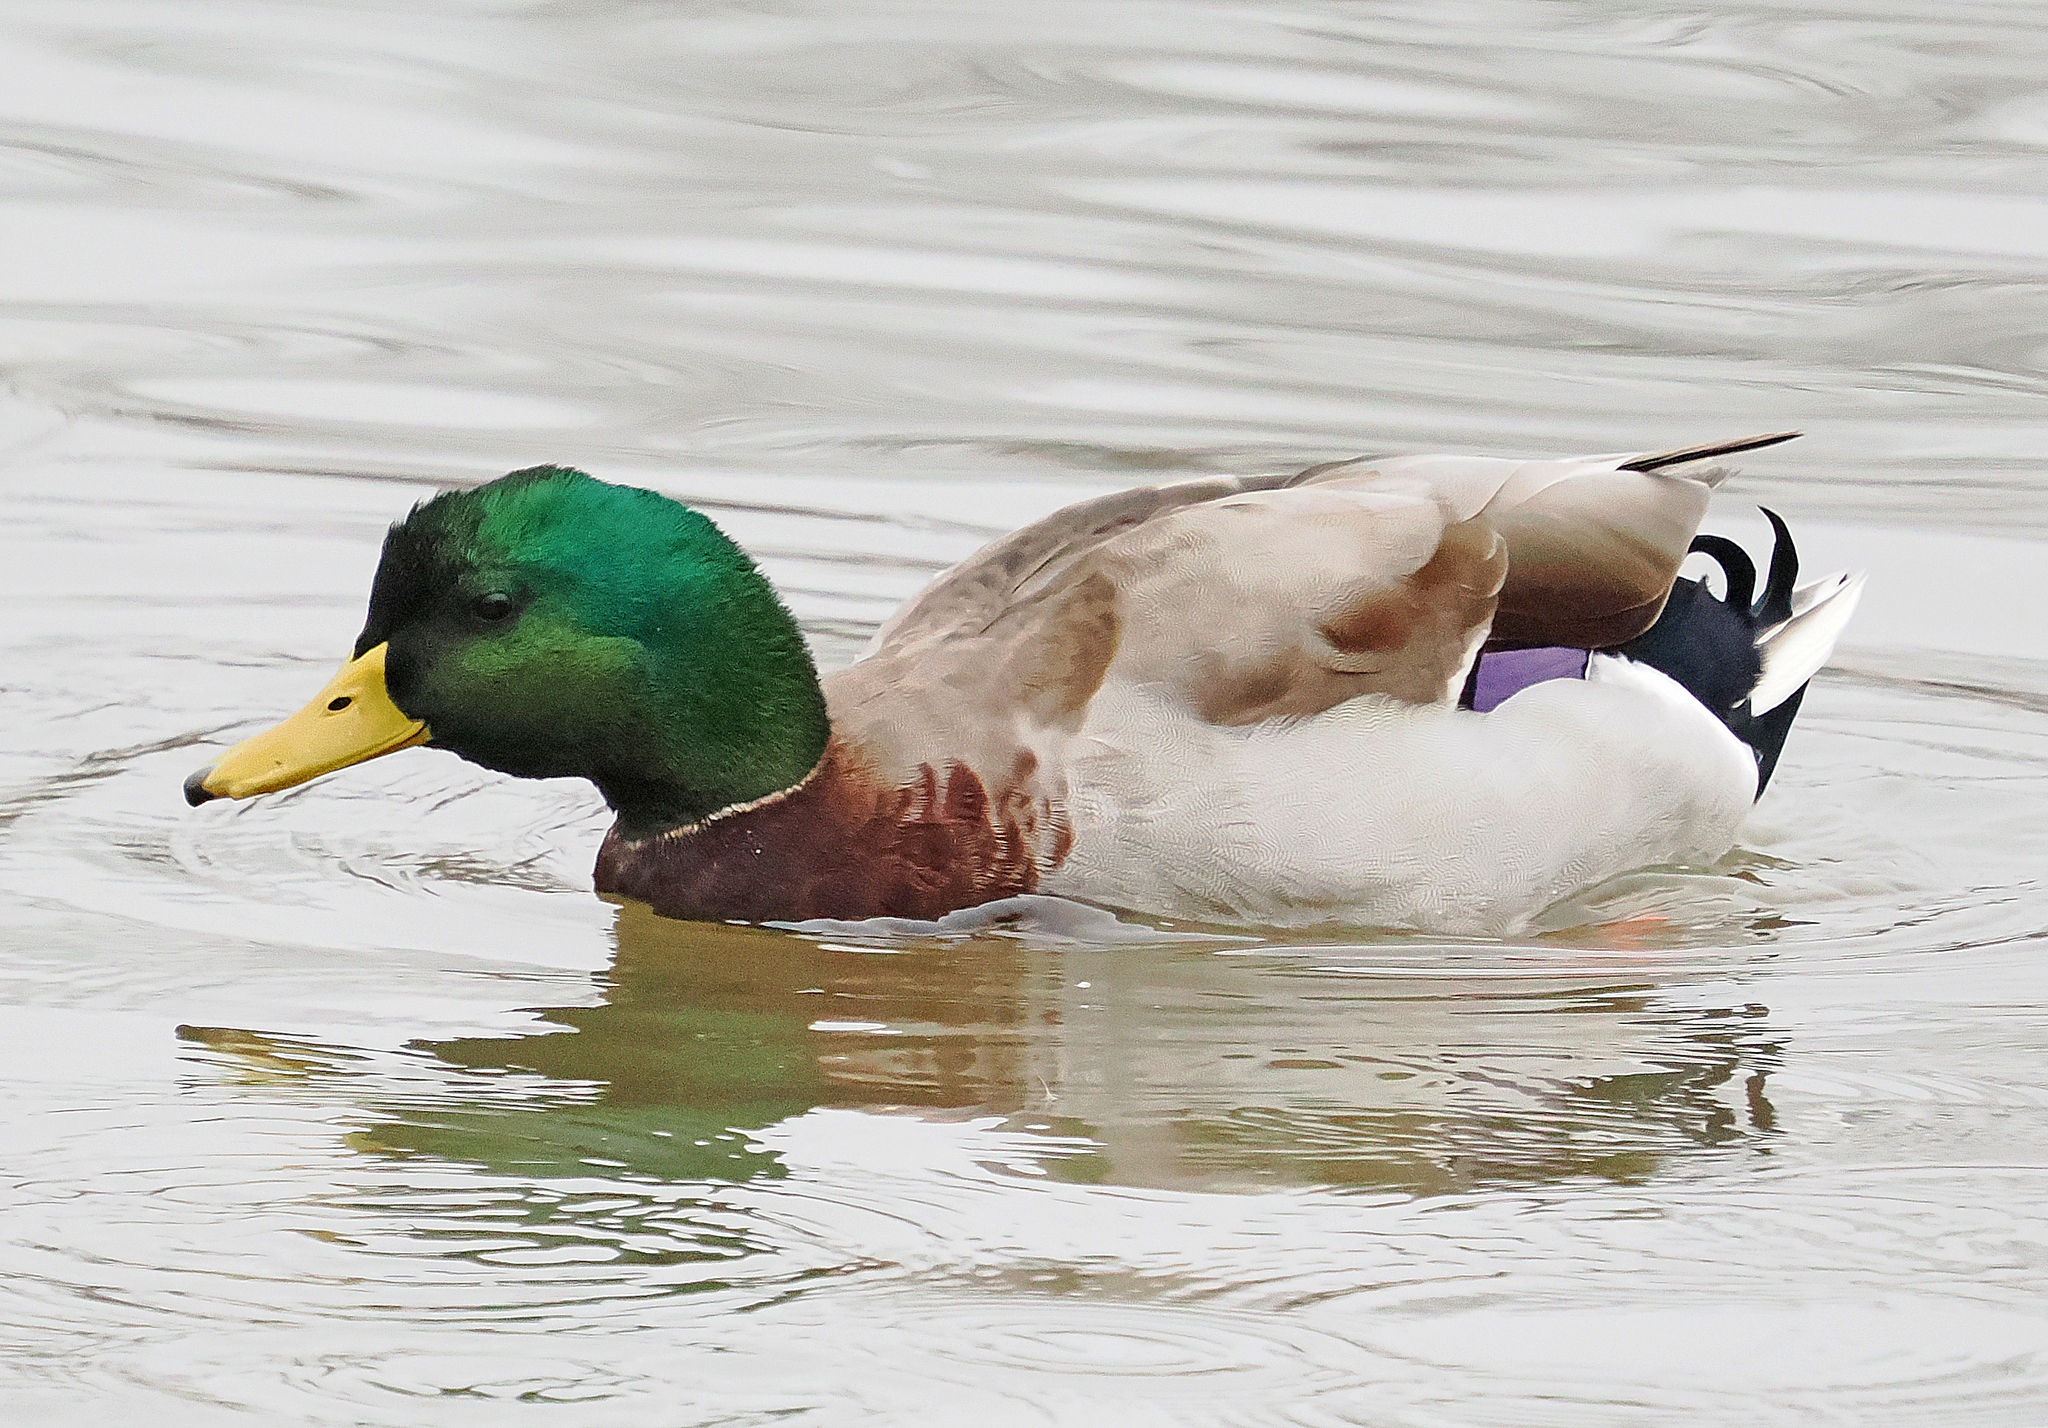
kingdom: Animalia
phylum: Chordata
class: Aves
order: Anseriformes
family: Anatidae
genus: Anas
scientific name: Anas platyrhynchos
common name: Mallard
